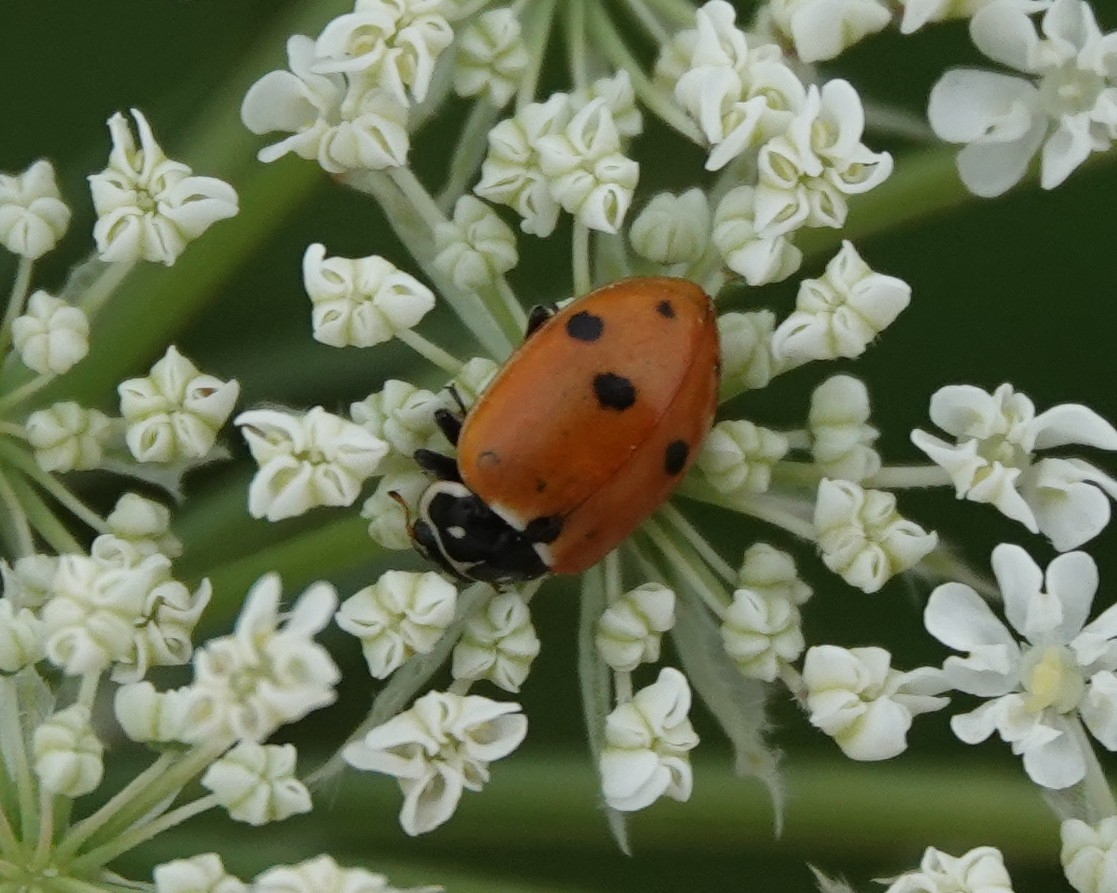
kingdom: Animalia
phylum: Arthropoda
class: Insecta
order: Coleoptera
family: Coccinellidae
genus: Hippodamia
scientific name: Hippodamia variegata
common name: Ladybird beetle
